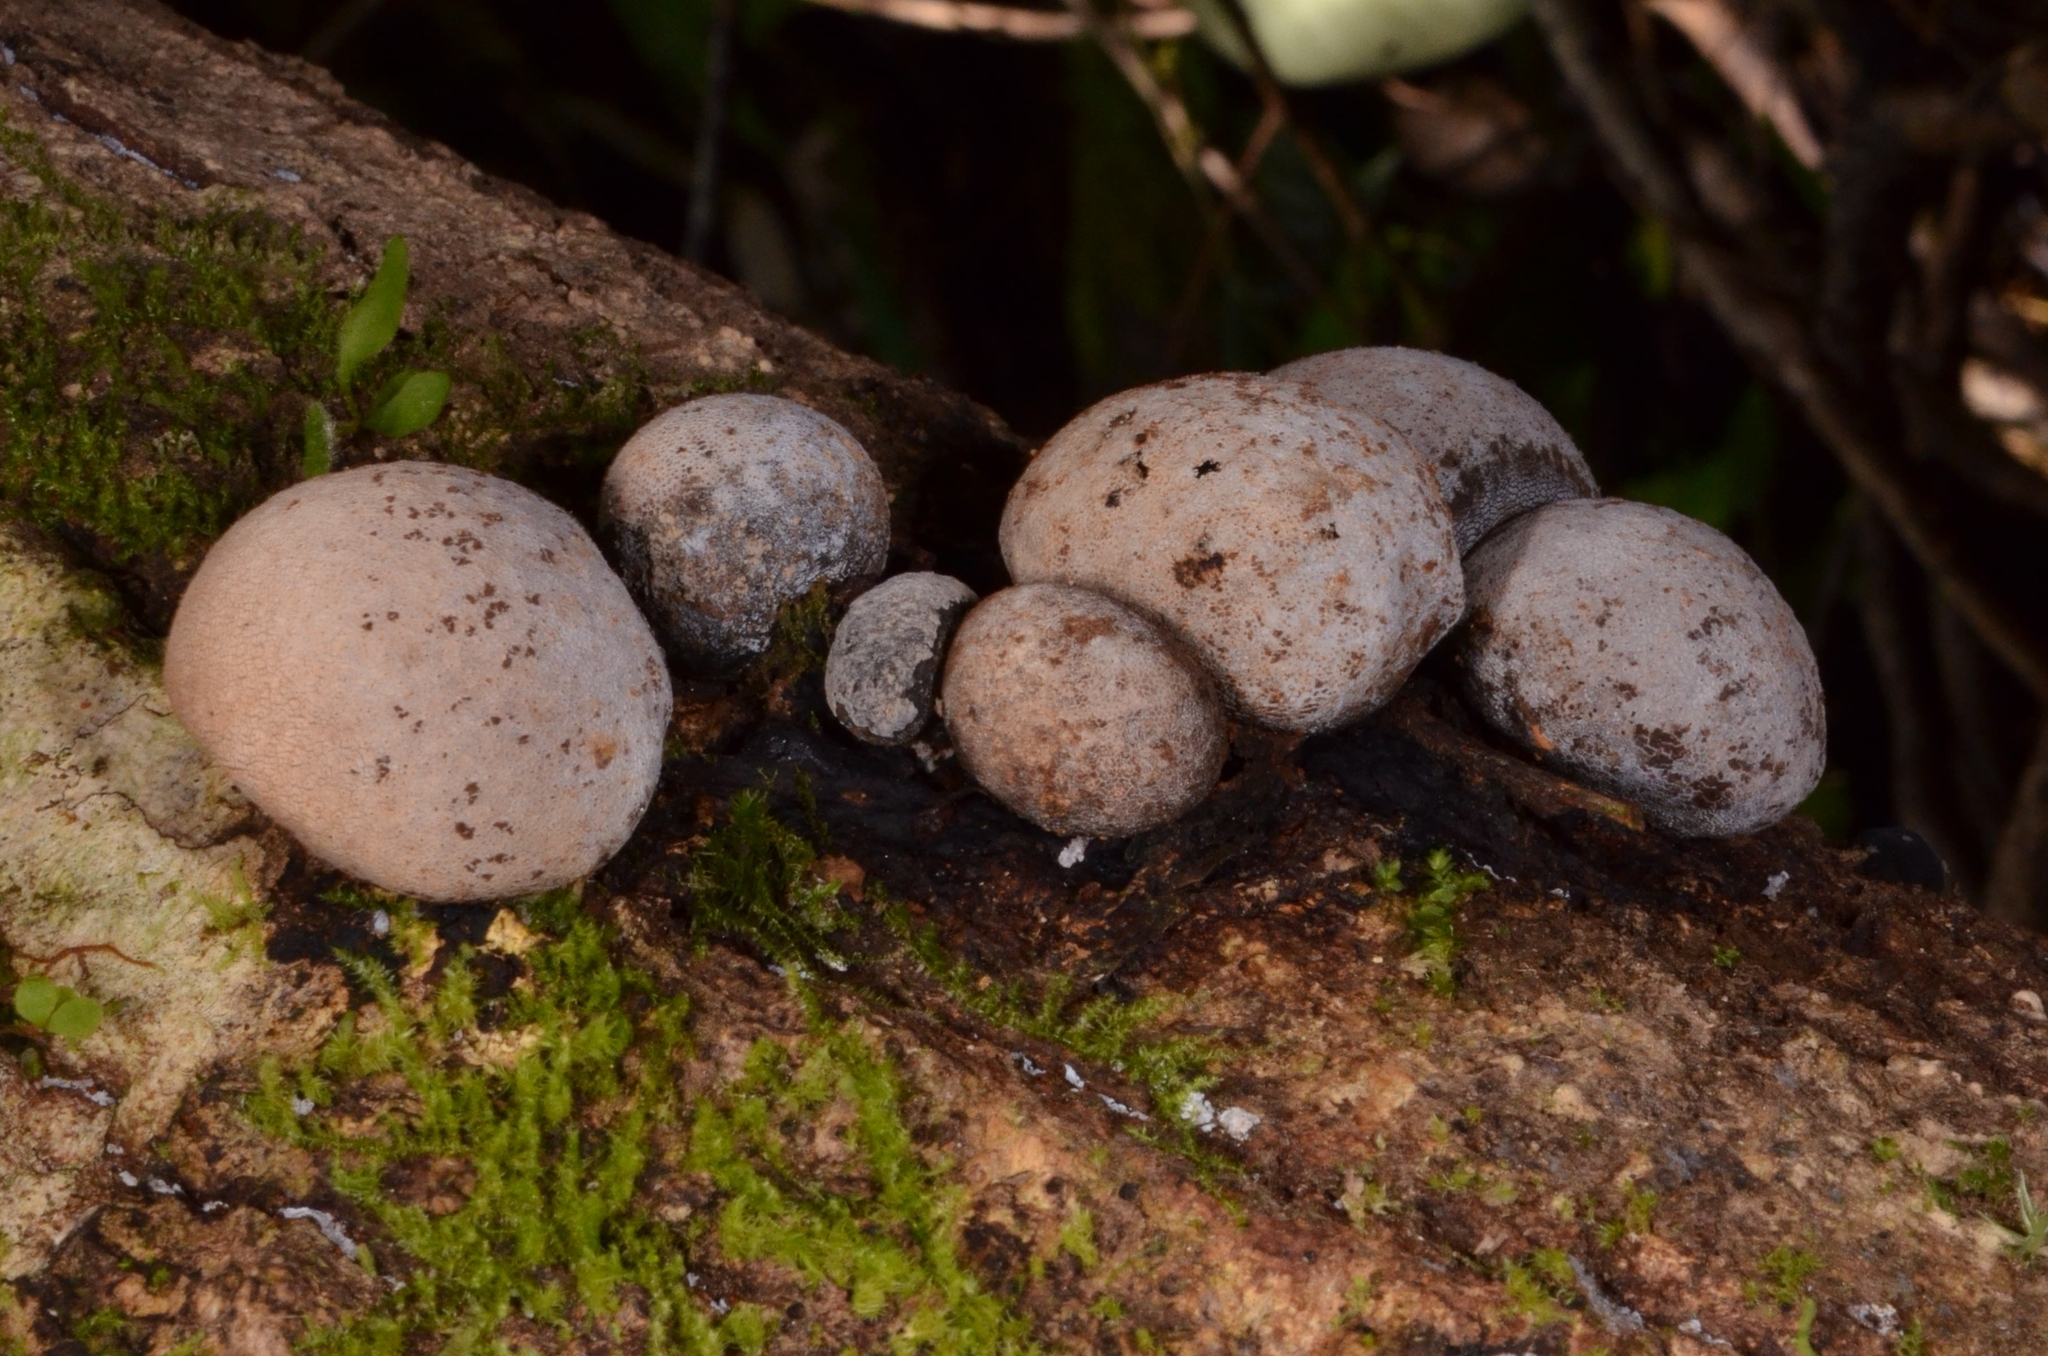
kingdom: Fungi
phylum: Ascomycota
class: Sordariomycetes
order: Xylariales
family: Xylariaceae
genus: Xylaria
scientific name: Xylaria cranioides
